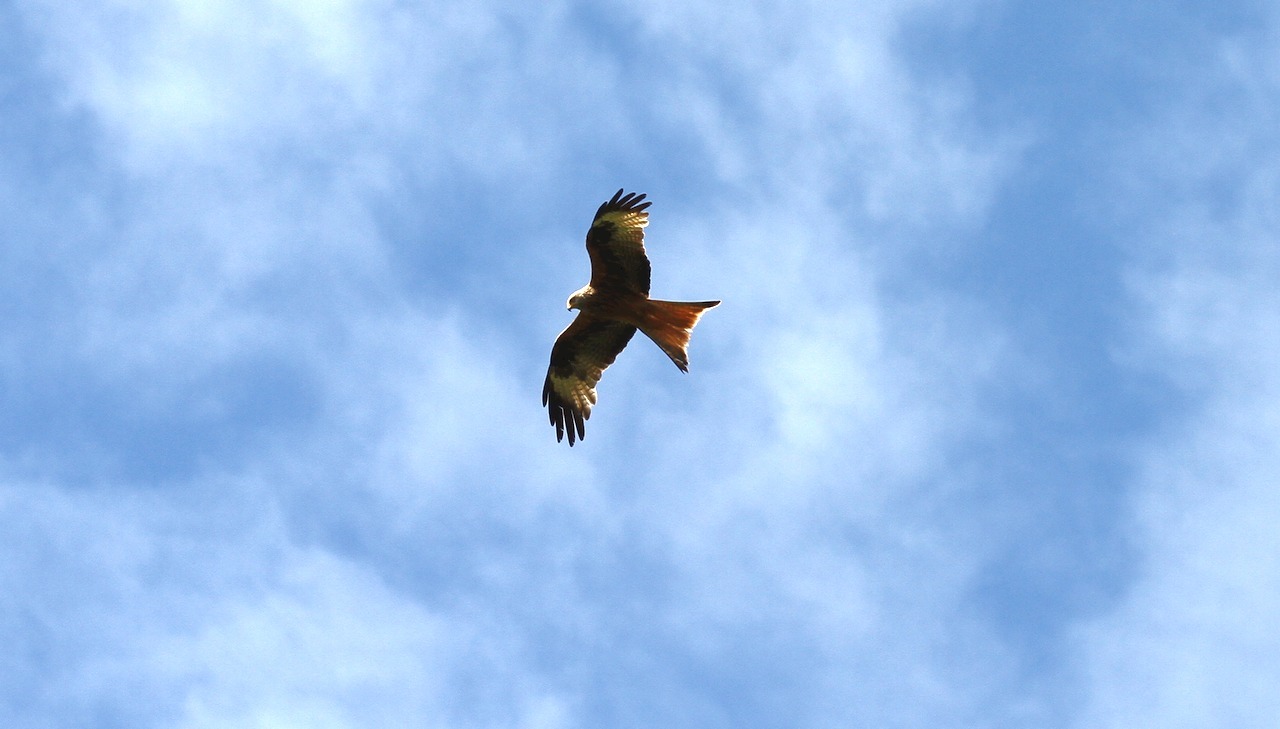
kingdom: Animalia
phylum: Chordata
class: Aves
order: Accipitriformes
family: Accipitridae
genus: Milvus
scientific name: Milvus milvus
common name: Red kite
